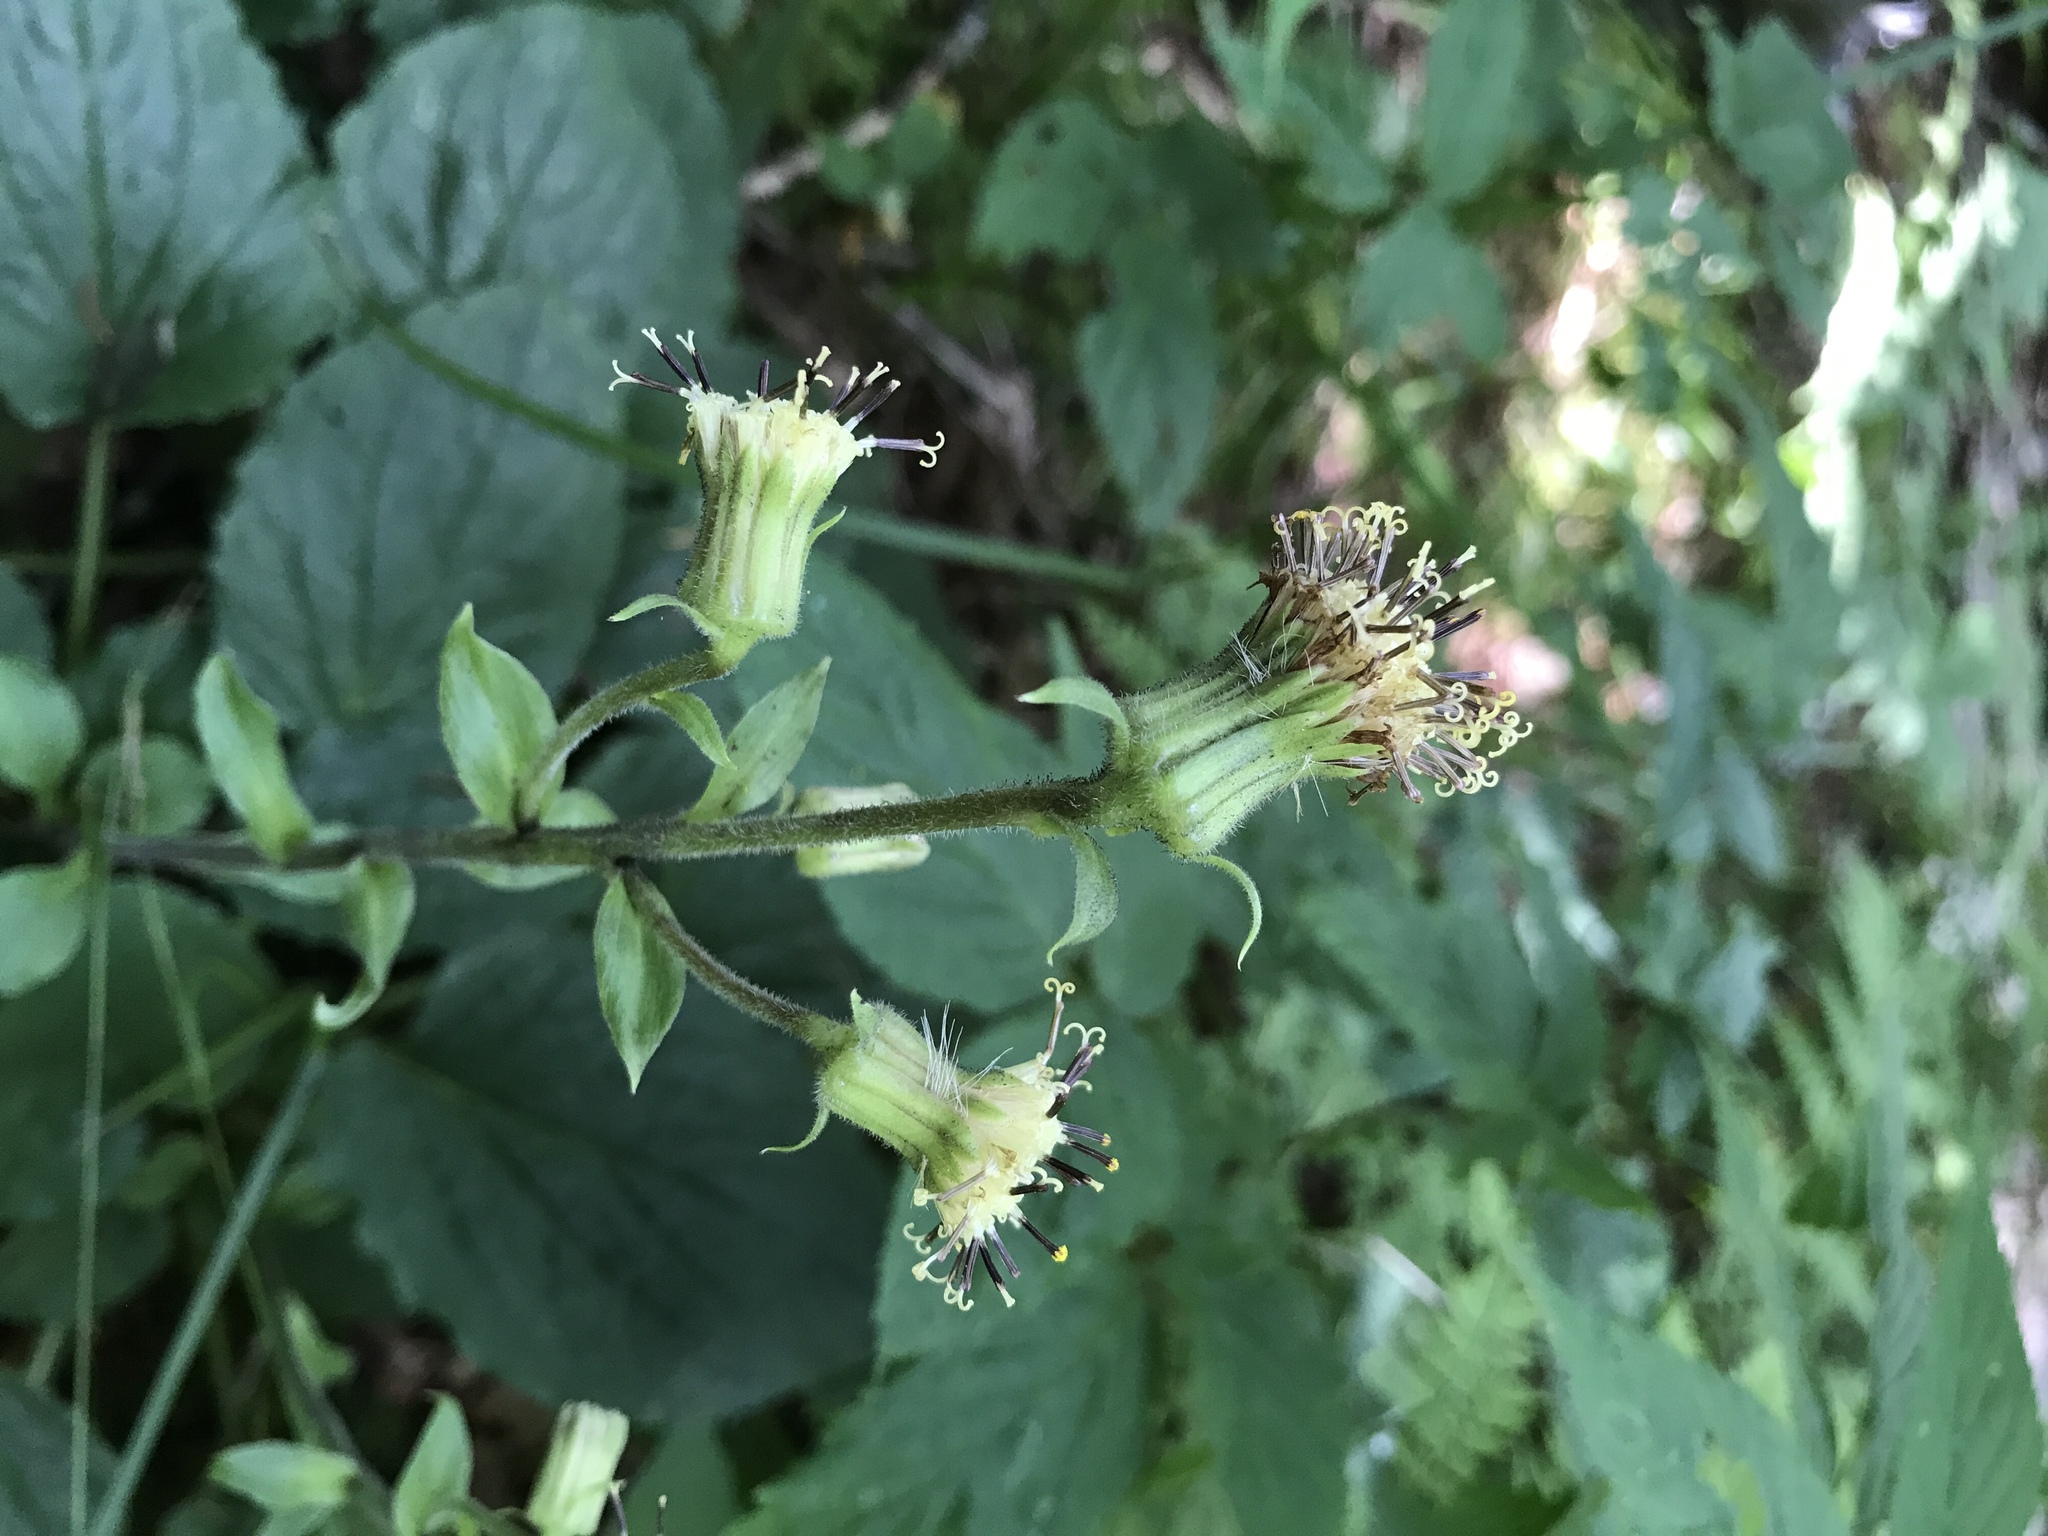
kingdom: Plantae
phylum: Tracheophyta
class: Magnoliopsida
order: Asterales
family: Asteraceae
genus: Rugelia
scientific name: Rugelia nudicaulis
